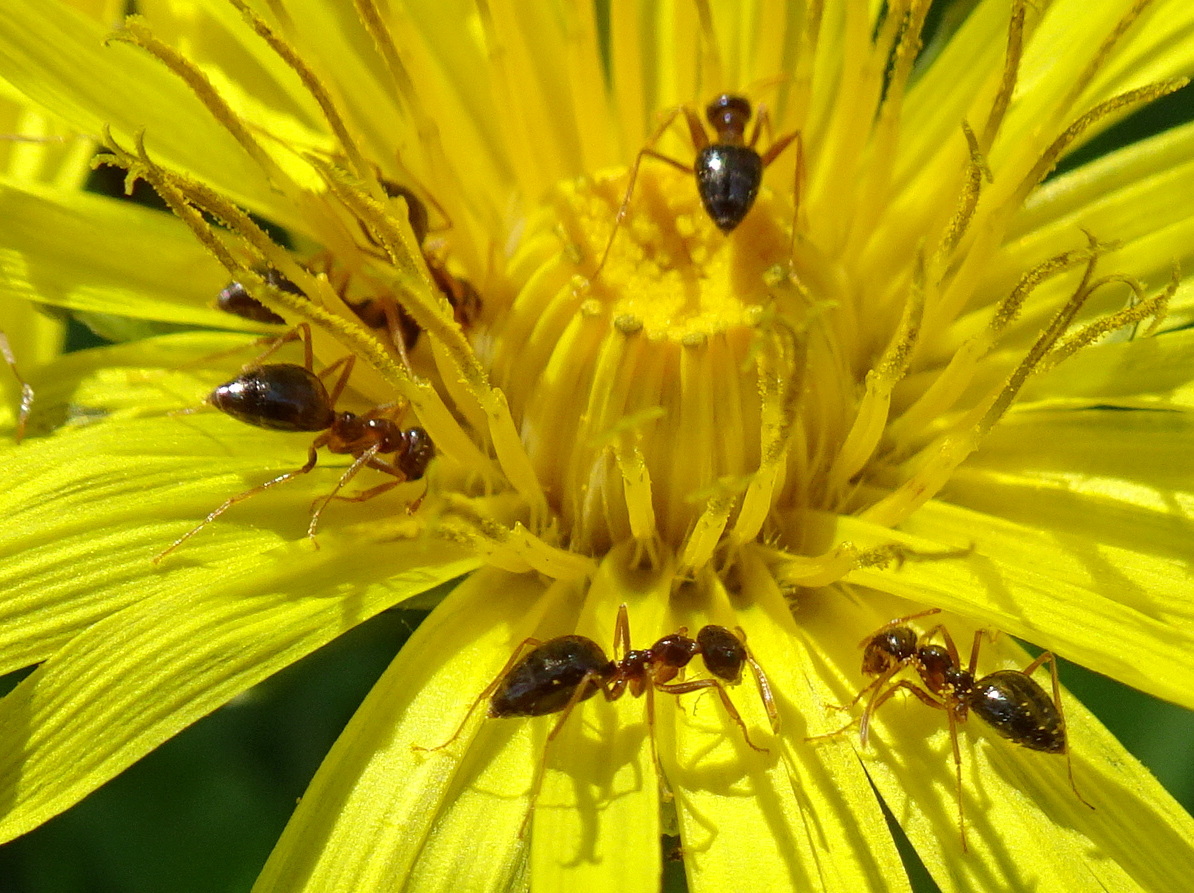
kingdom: Animalia
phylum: Arthropoda
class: Insecta
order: Hymenoptera
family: Formicidae
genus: Prenolepis
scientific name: Prenolepis imparis
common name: Small honey ant
